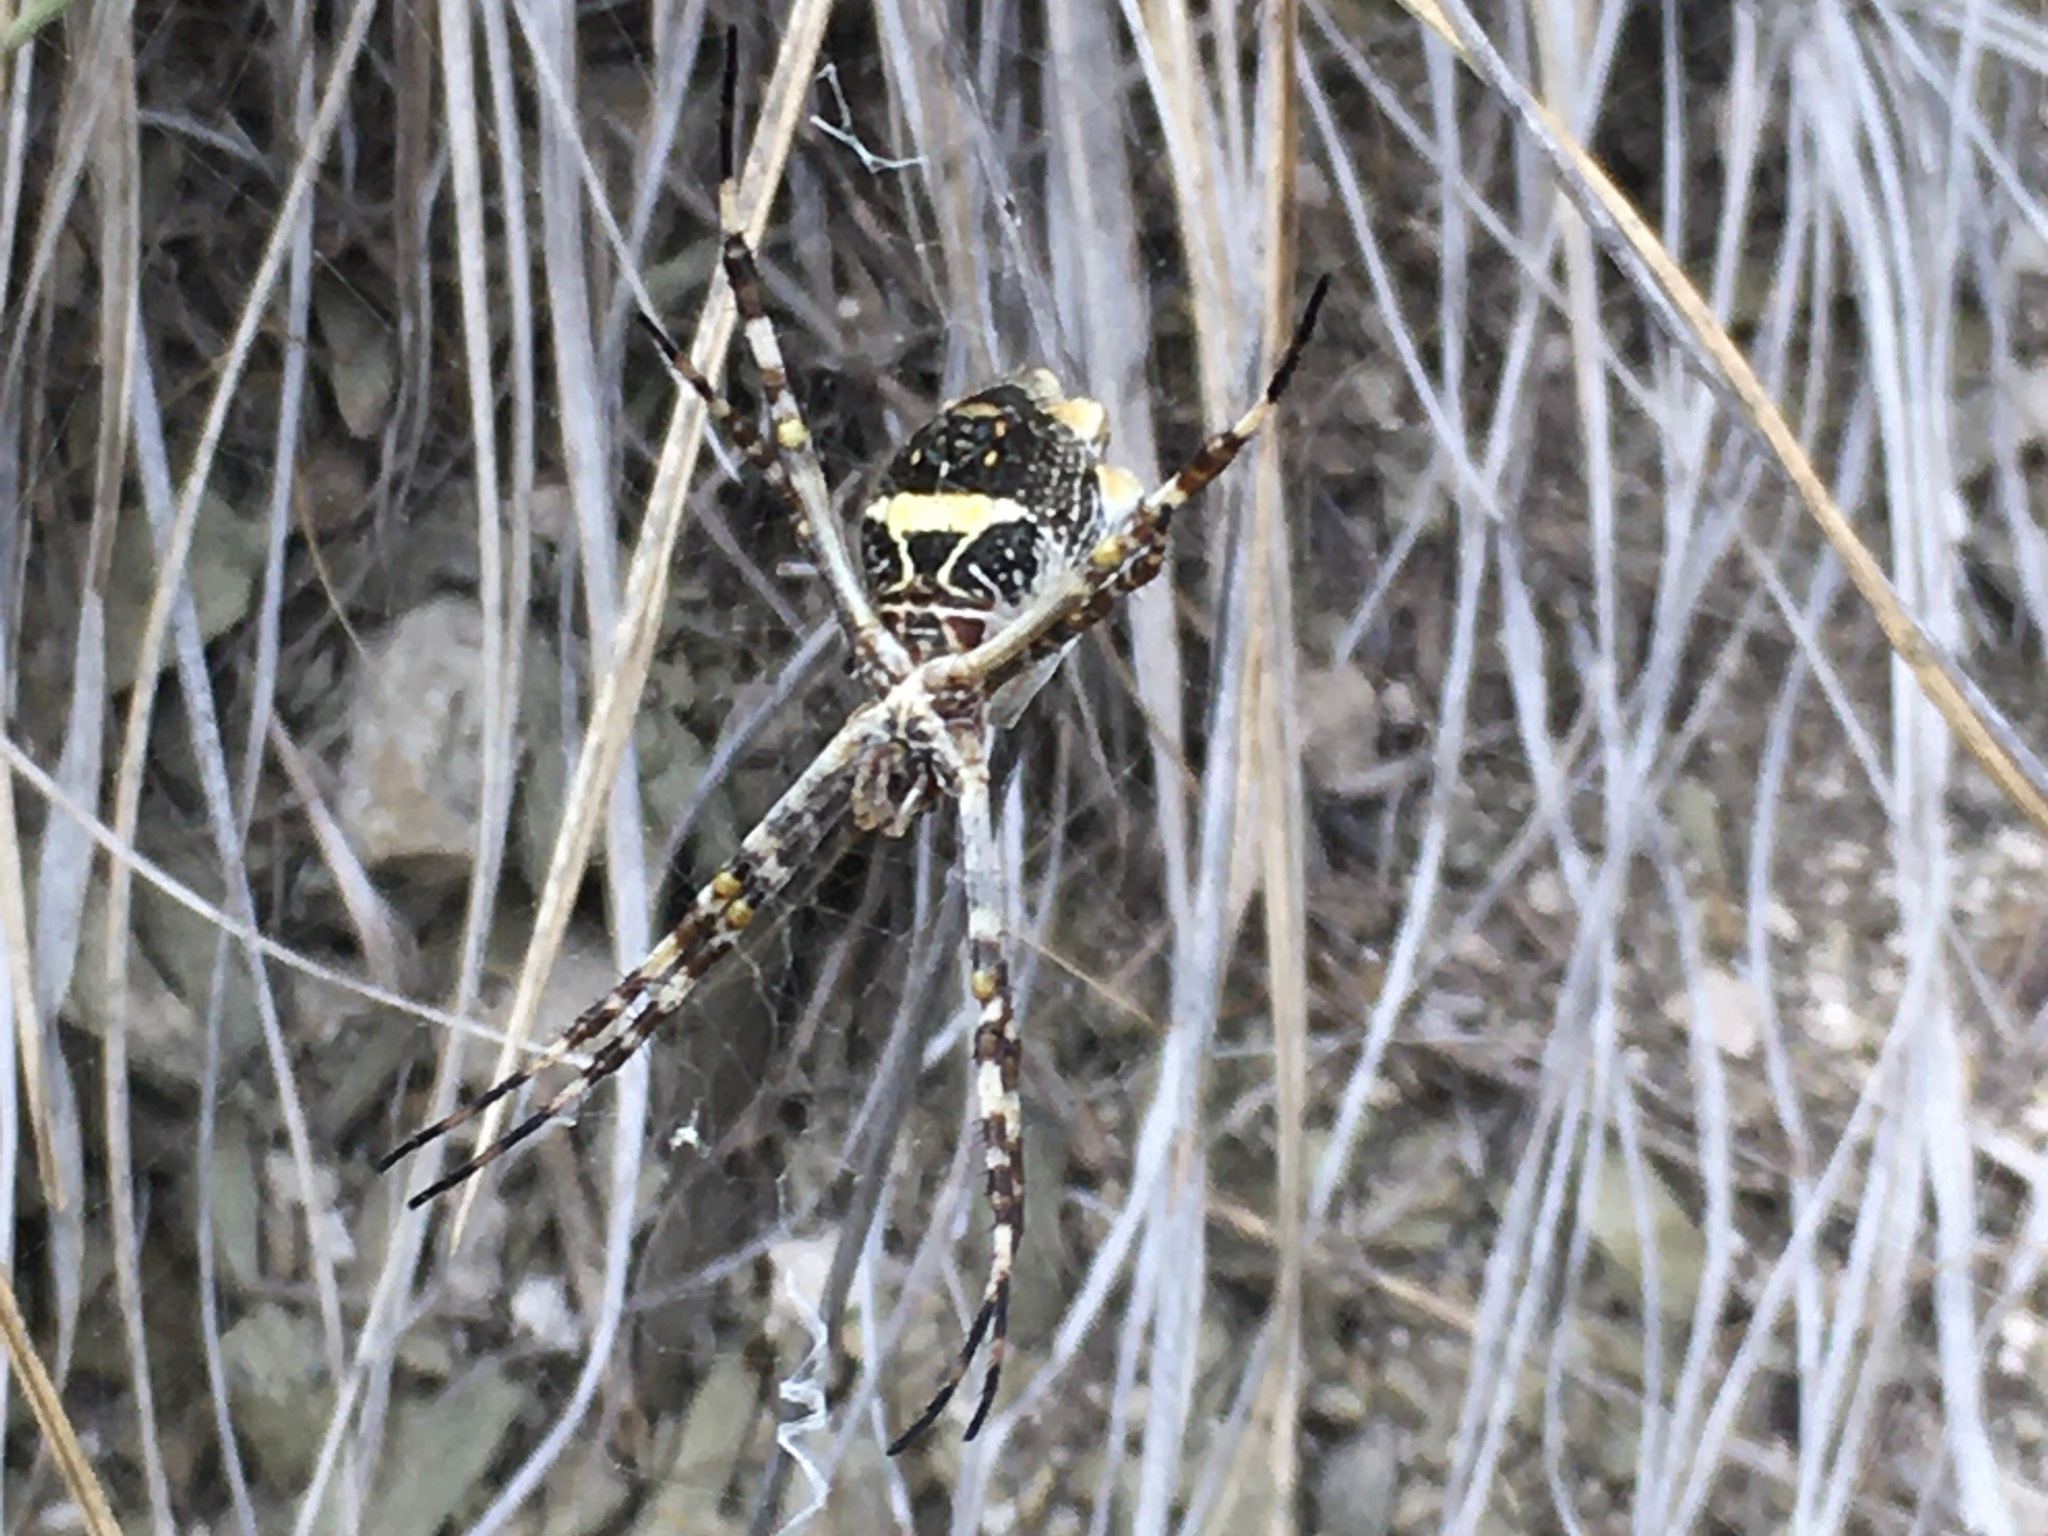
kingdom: Animalia
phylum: Arthropoda
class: Arachnida
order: Araneae
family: Araneidae
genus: Argiope
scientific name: Argiope argentata
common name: Orb weavers
